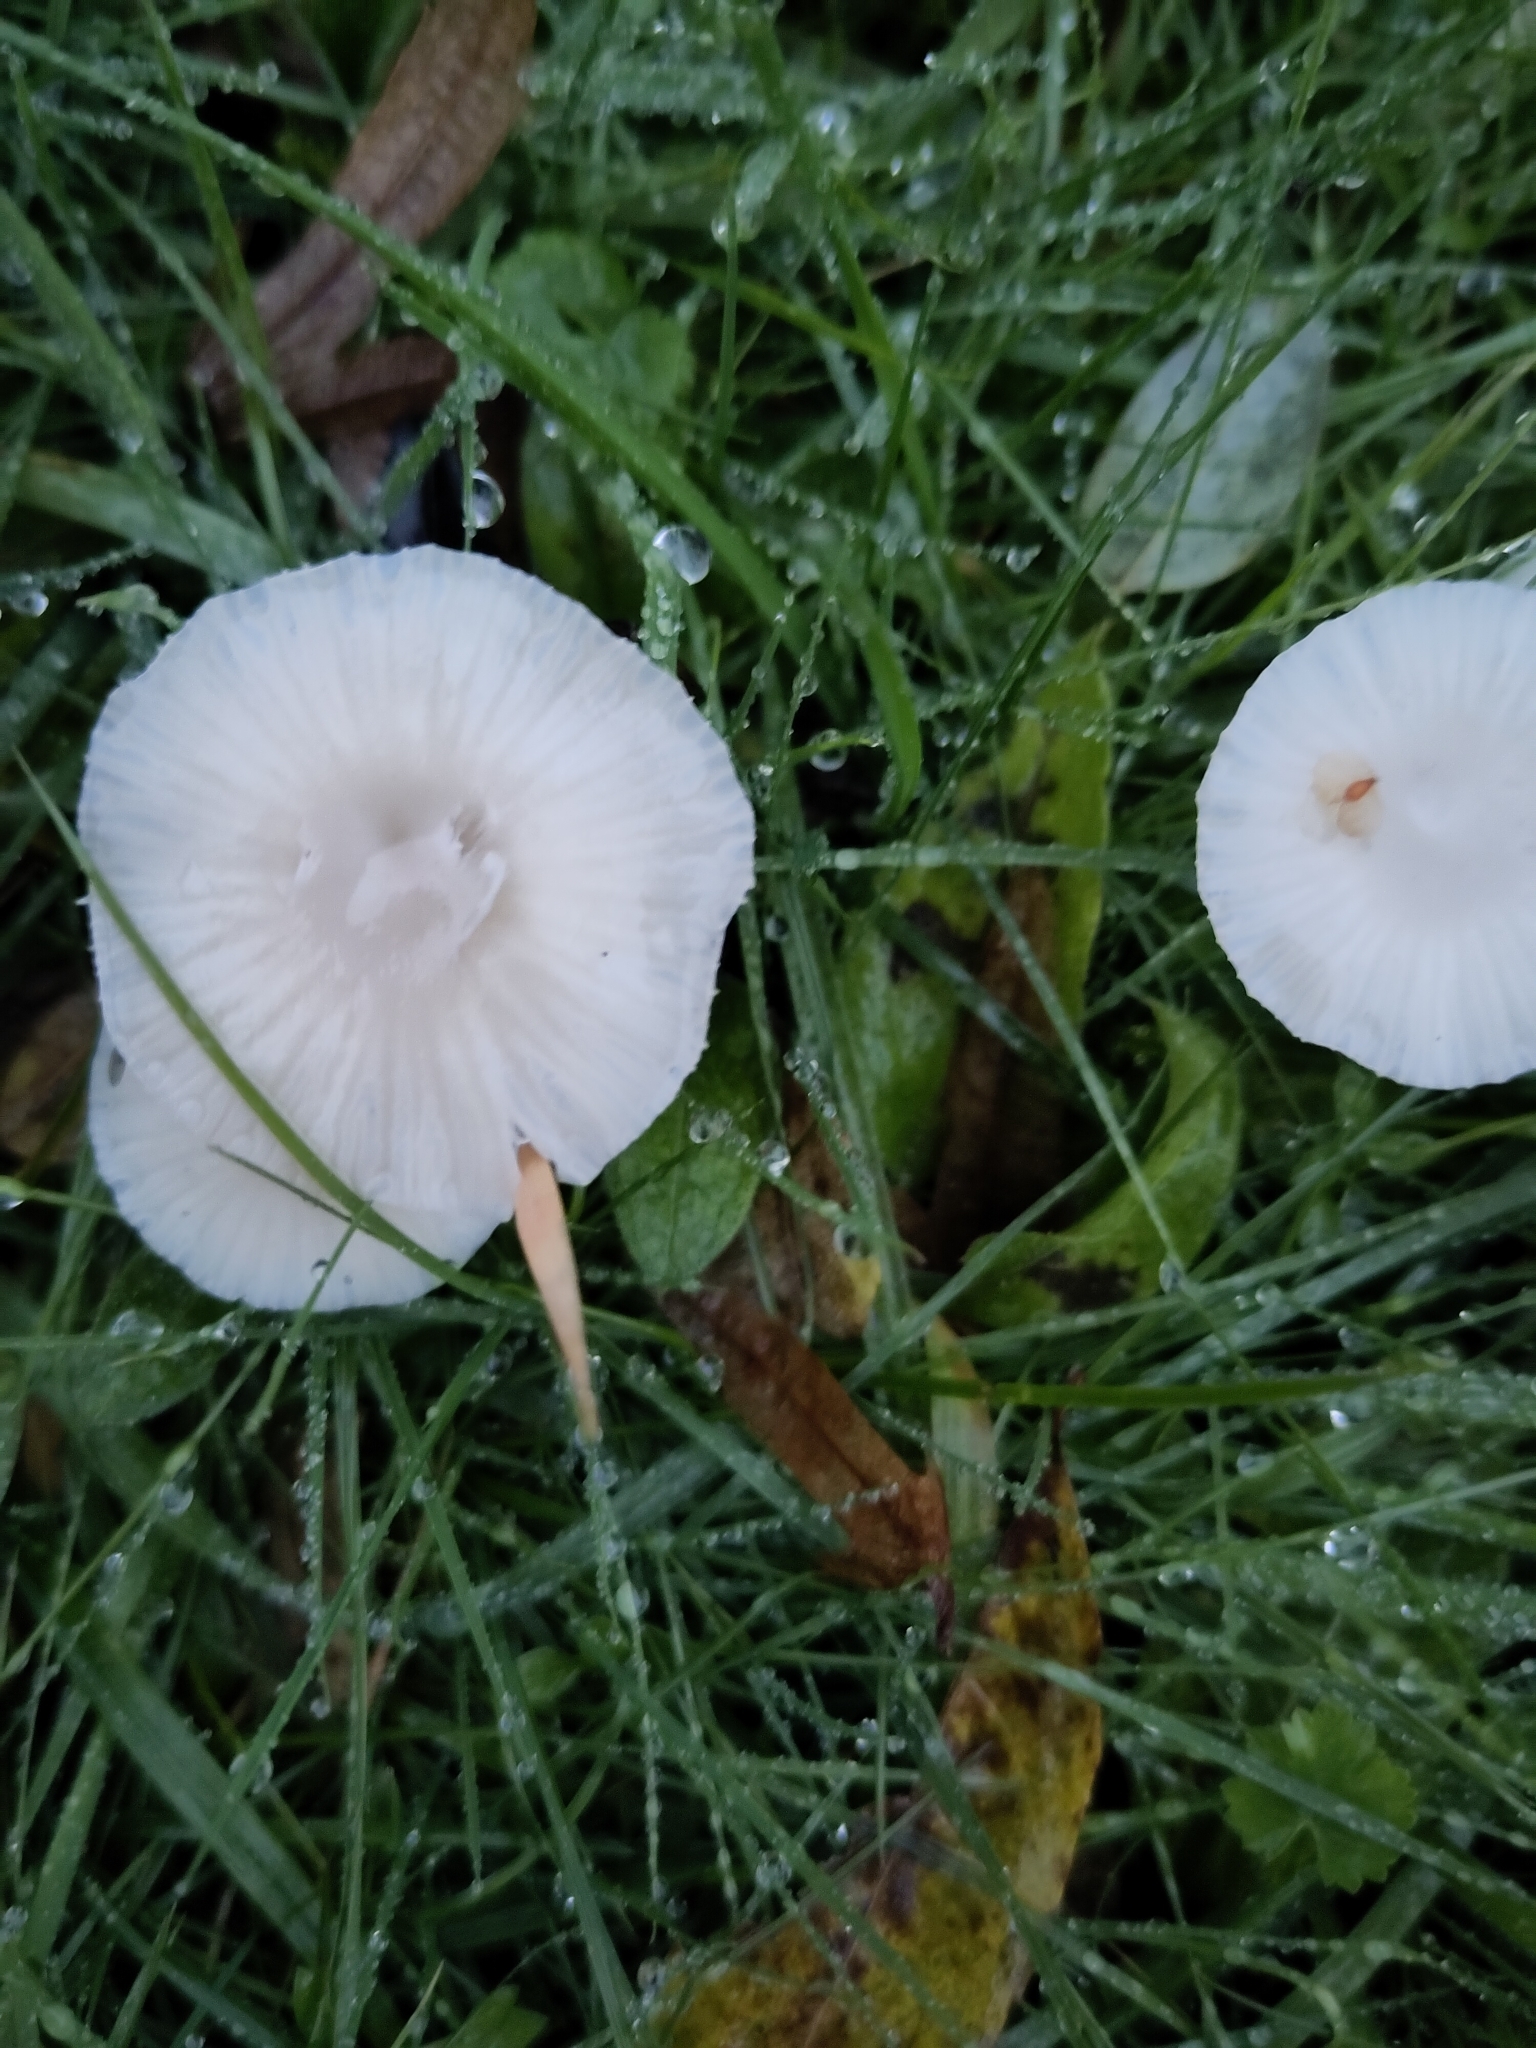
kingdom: Fungi
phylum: Basidiomycota
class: Agaricomycetes
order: Agaricales
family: Hygrophoraceae
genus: Cuphophyllus
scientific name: Cuphophyllus virgineus
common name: Snowy waxcap
